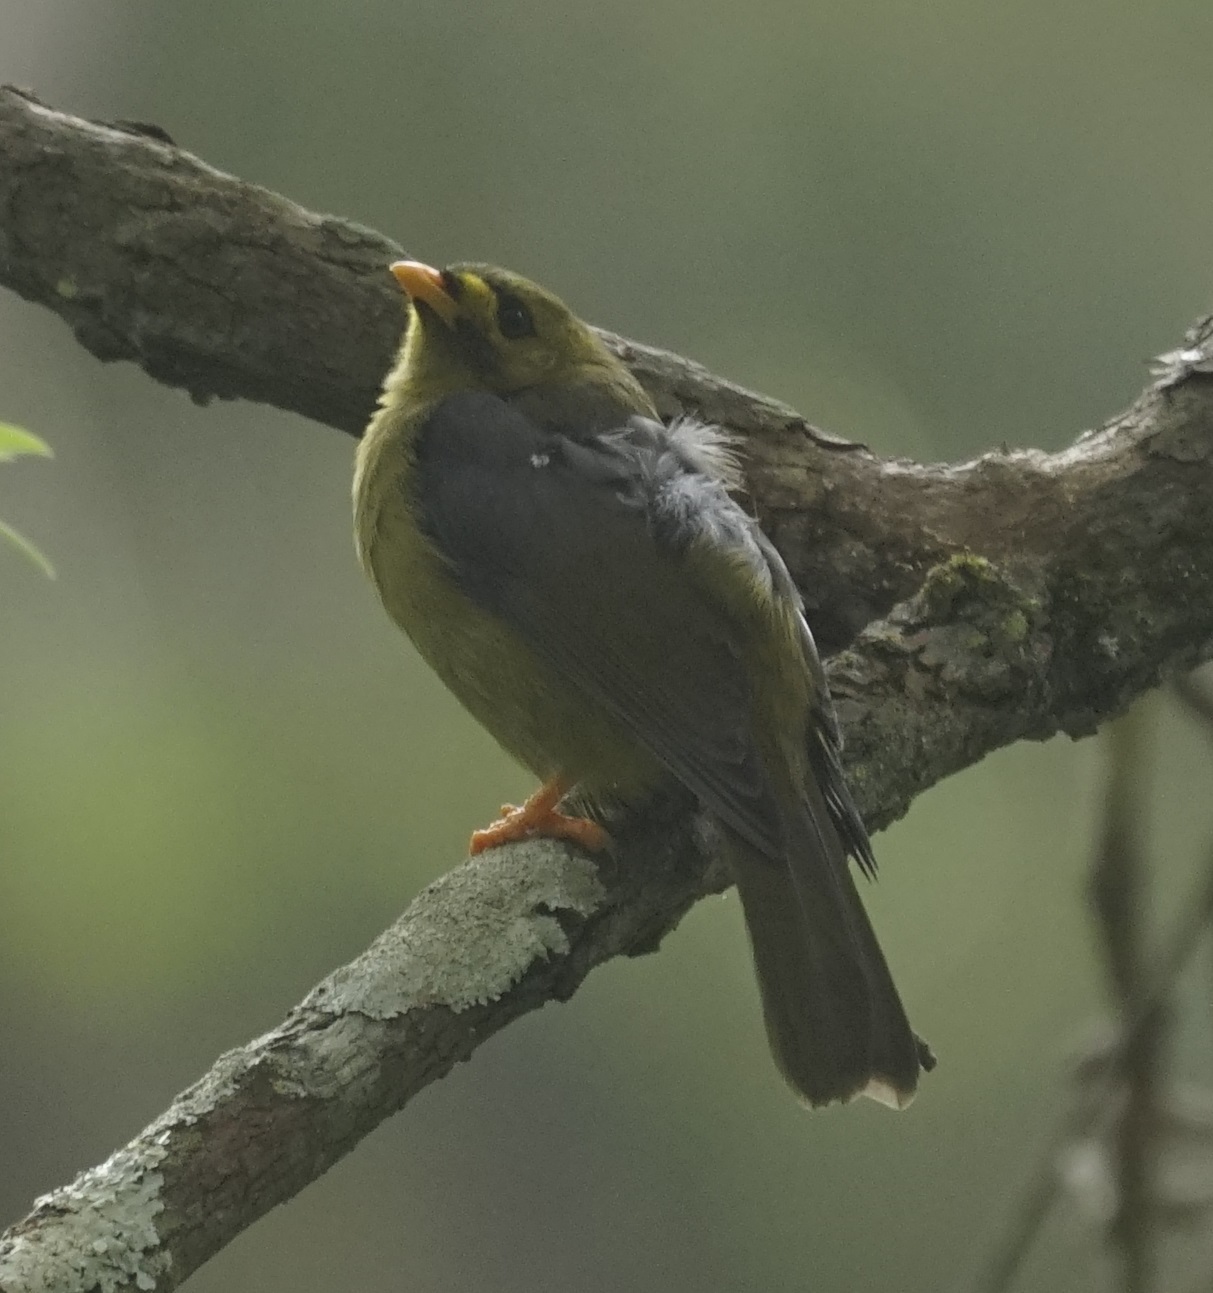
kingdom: Animalia
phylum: Chordata
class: Aves
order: Passeriformes
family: Meliphagidae
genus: Manorina
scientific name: Manorina melanophrys
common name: Bell miner
